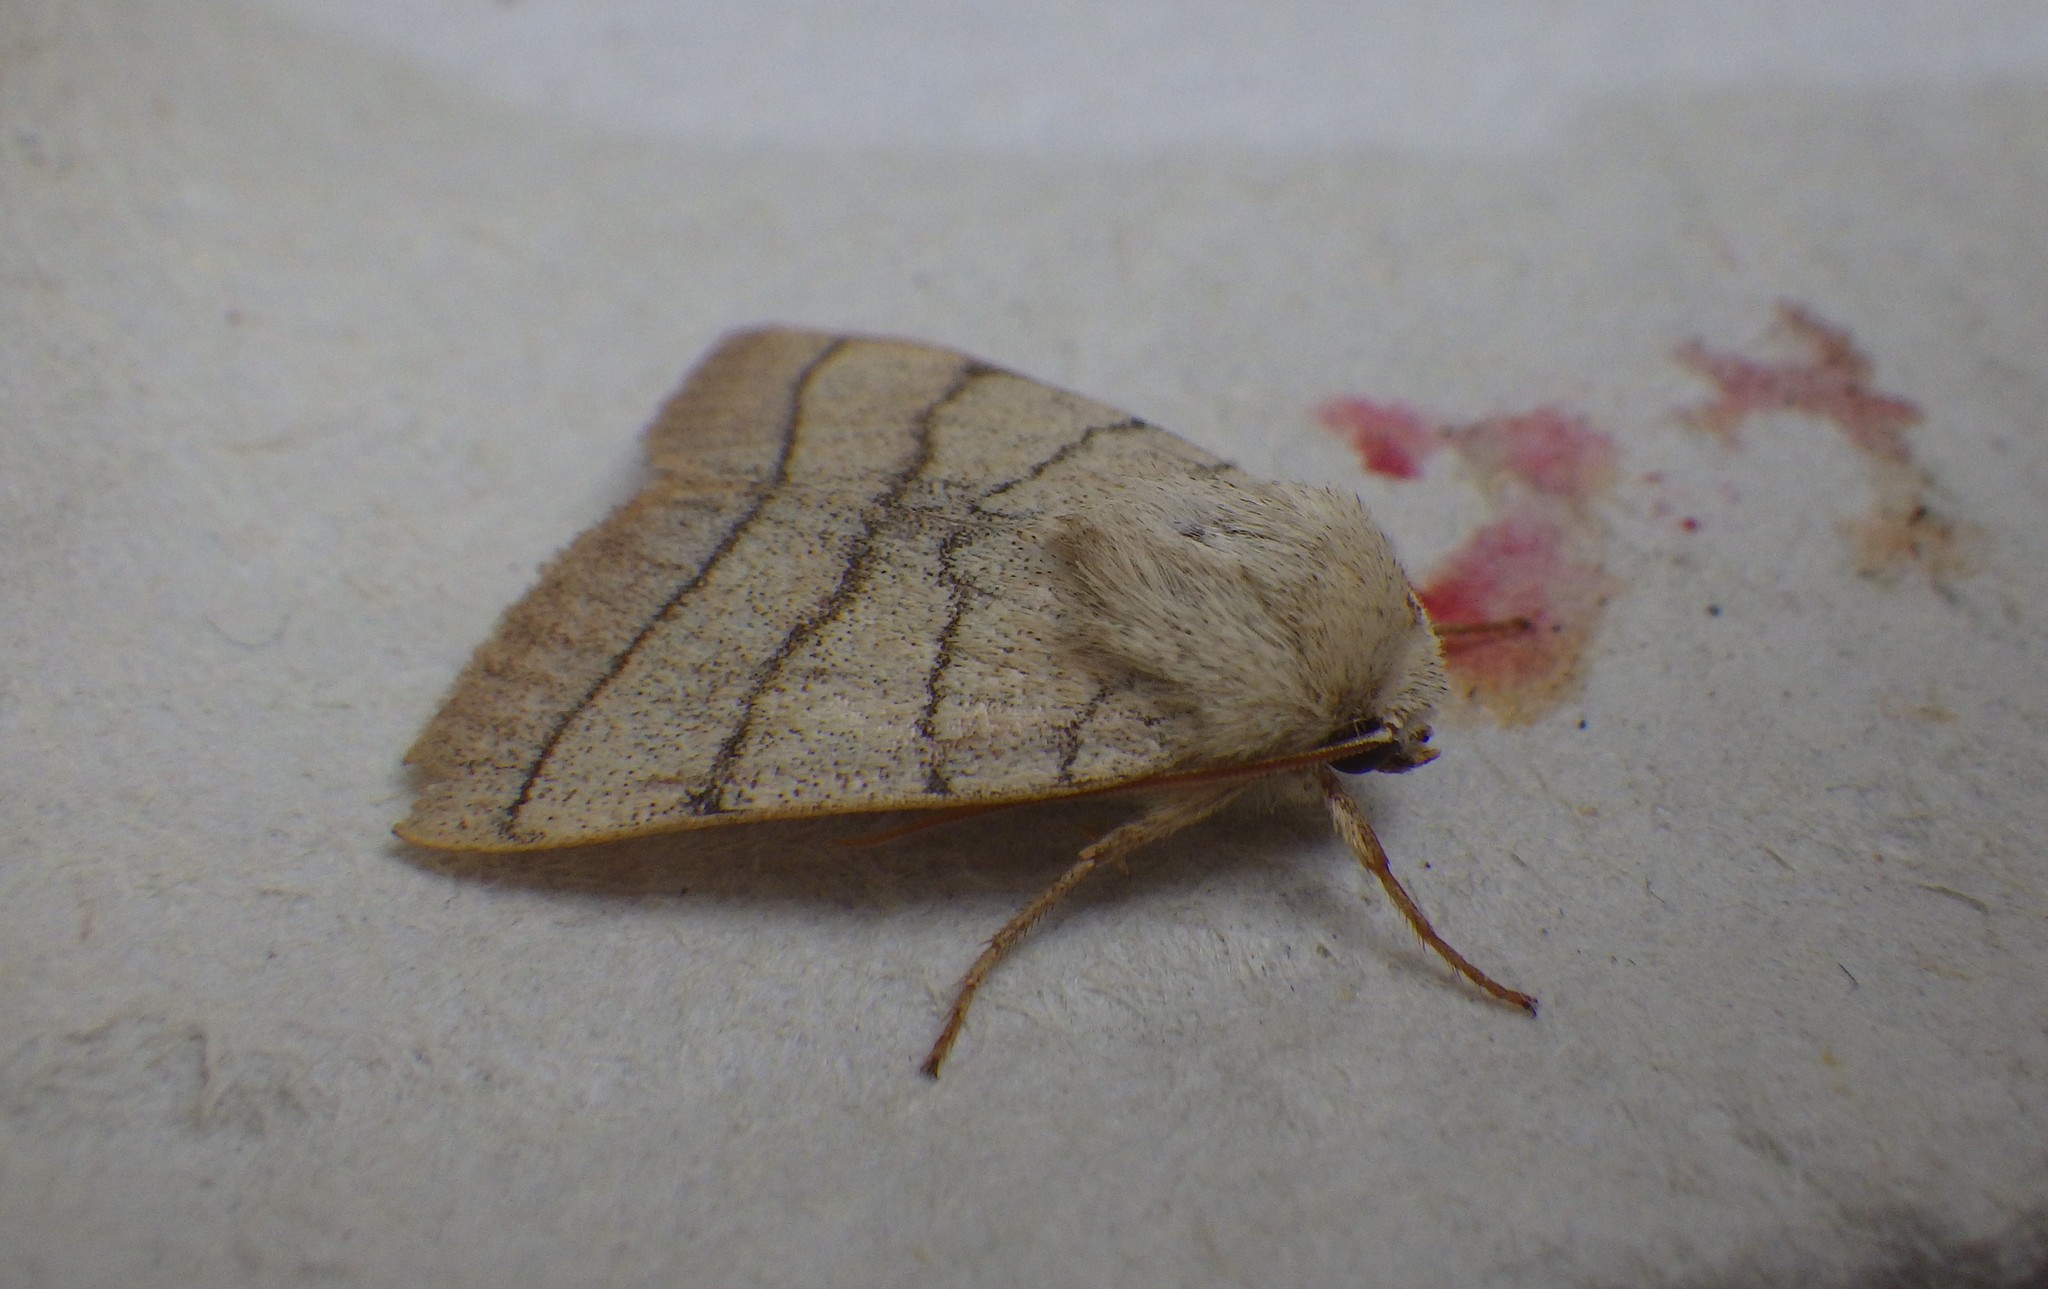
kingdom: Animalia
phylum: Arthropoda
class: Insecta
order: Lepidoptera
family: Noctuidae
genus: Charanyca
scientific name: Charanyca trigrammica
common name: Treble lines
